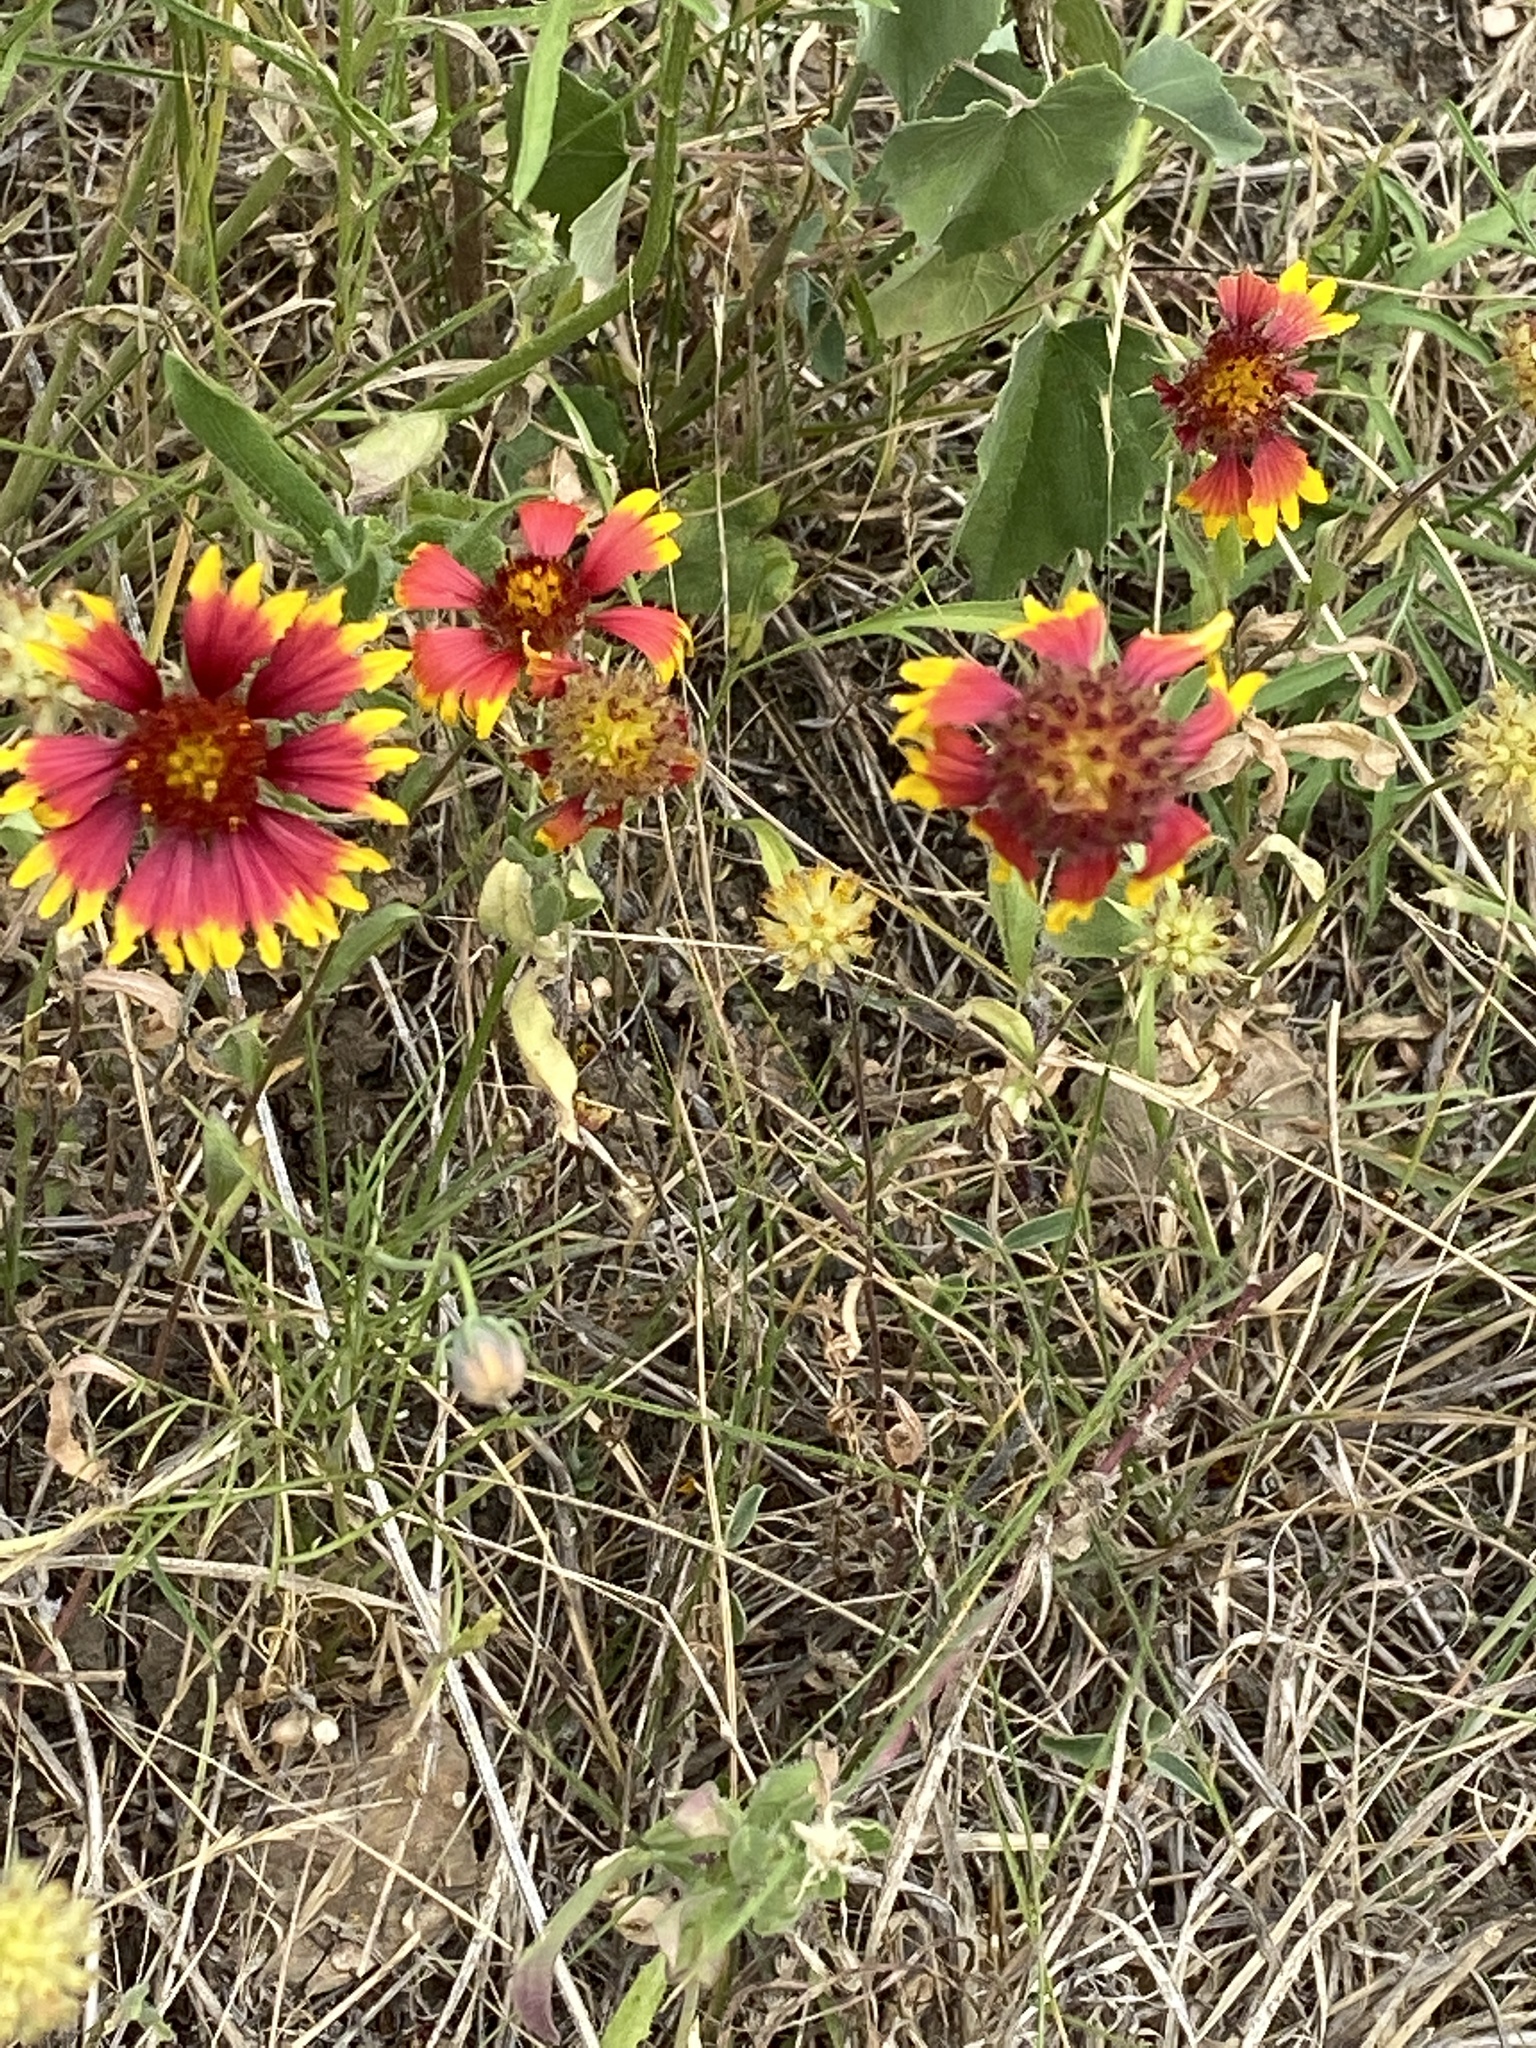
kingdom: Plantae
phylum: Tracheophyta
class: Magnoliopsida
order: Asterales
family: Asteraceae
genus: Gaillardia
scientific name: Gaillardia pulchella
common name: Firewheel
